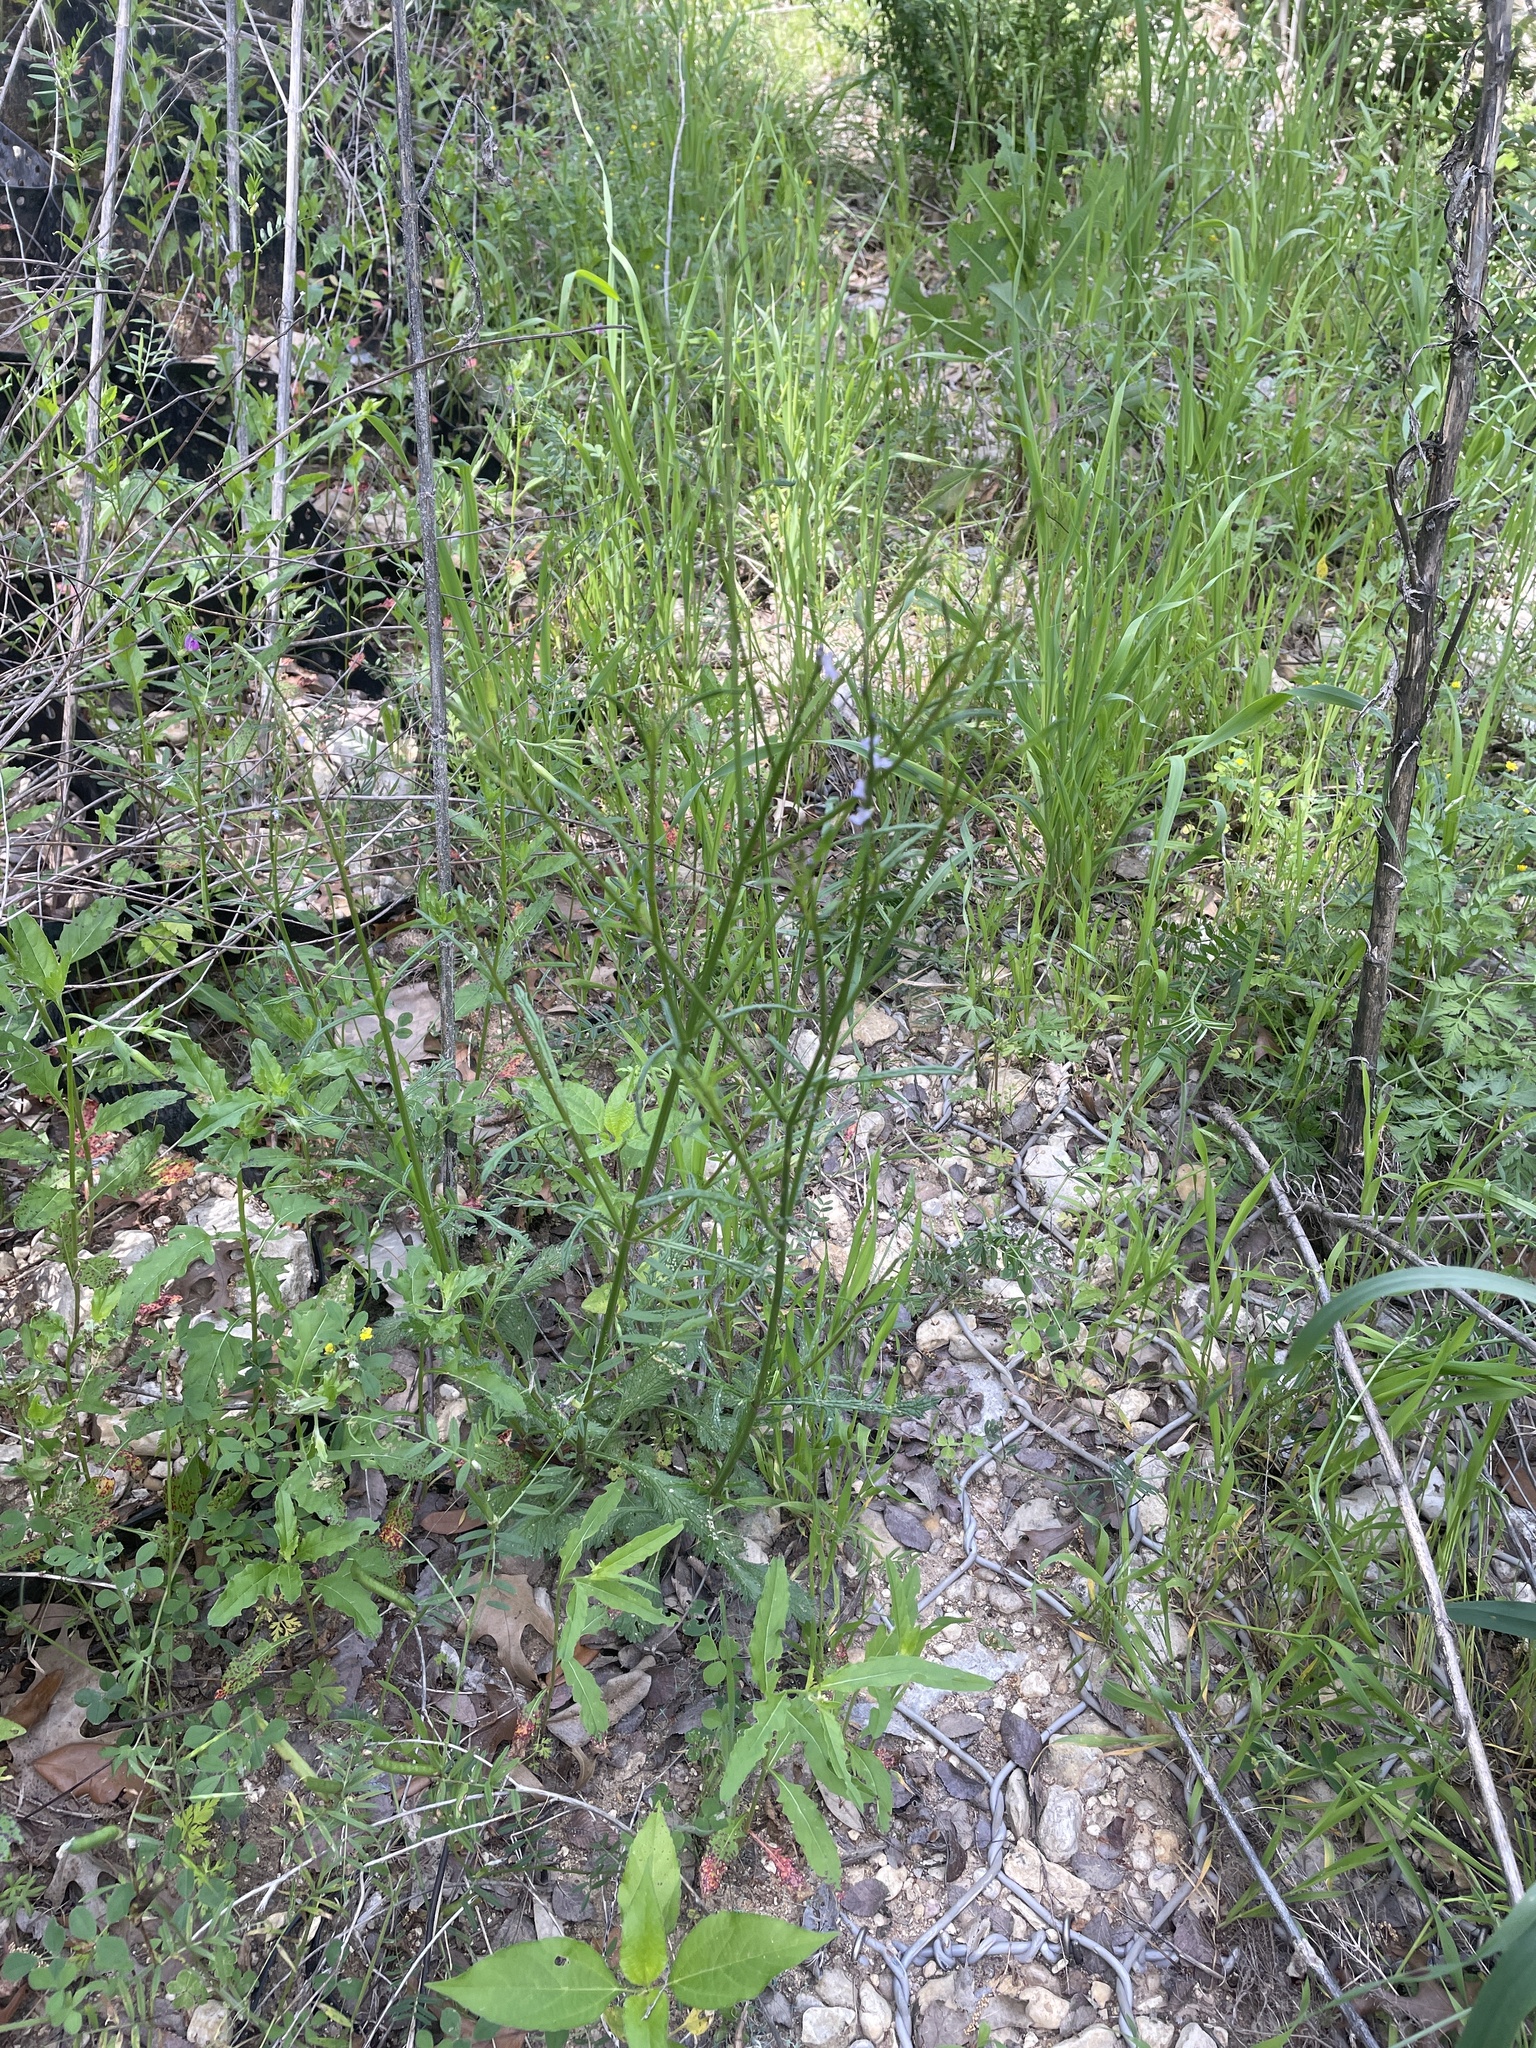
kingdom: Plantae
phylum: Tracheophyta
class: Magnoliopsida
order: Lamiales
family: Verbenaceae
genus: Verbena
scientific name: Verbena halei
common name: Texas vervain
